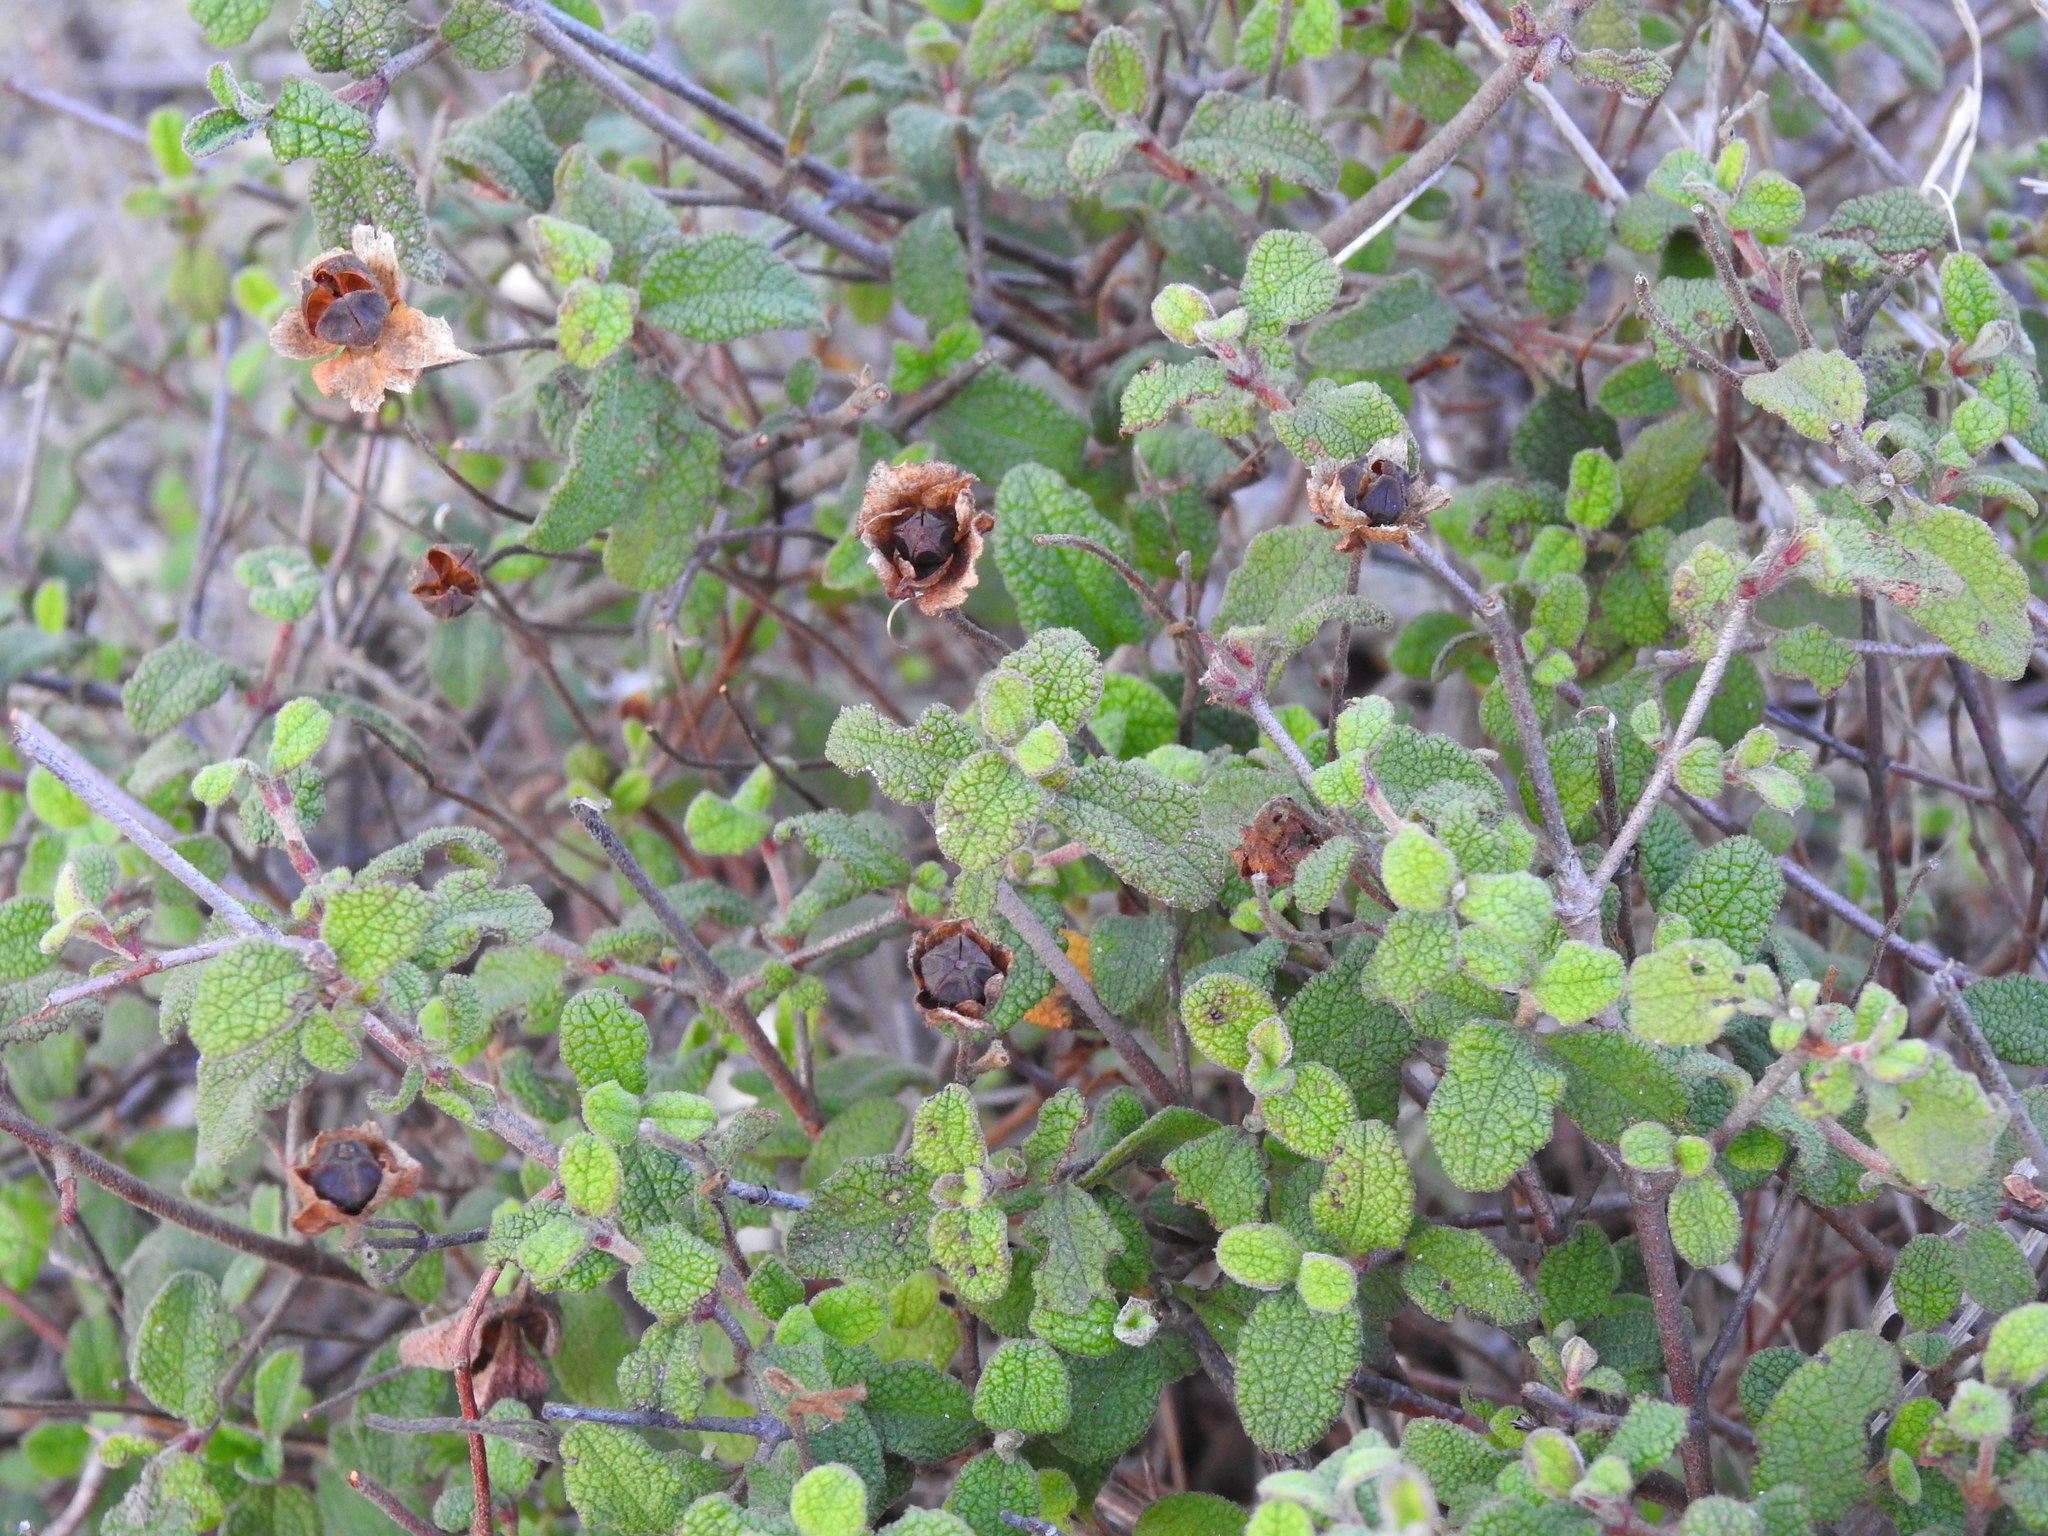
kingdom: Plantae
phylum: Tracheophyta
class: Magnoliopsida
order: Malvales
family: Cistaceae
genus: Cistus
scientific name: Cistus salviifolius
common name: Salvia cistus
